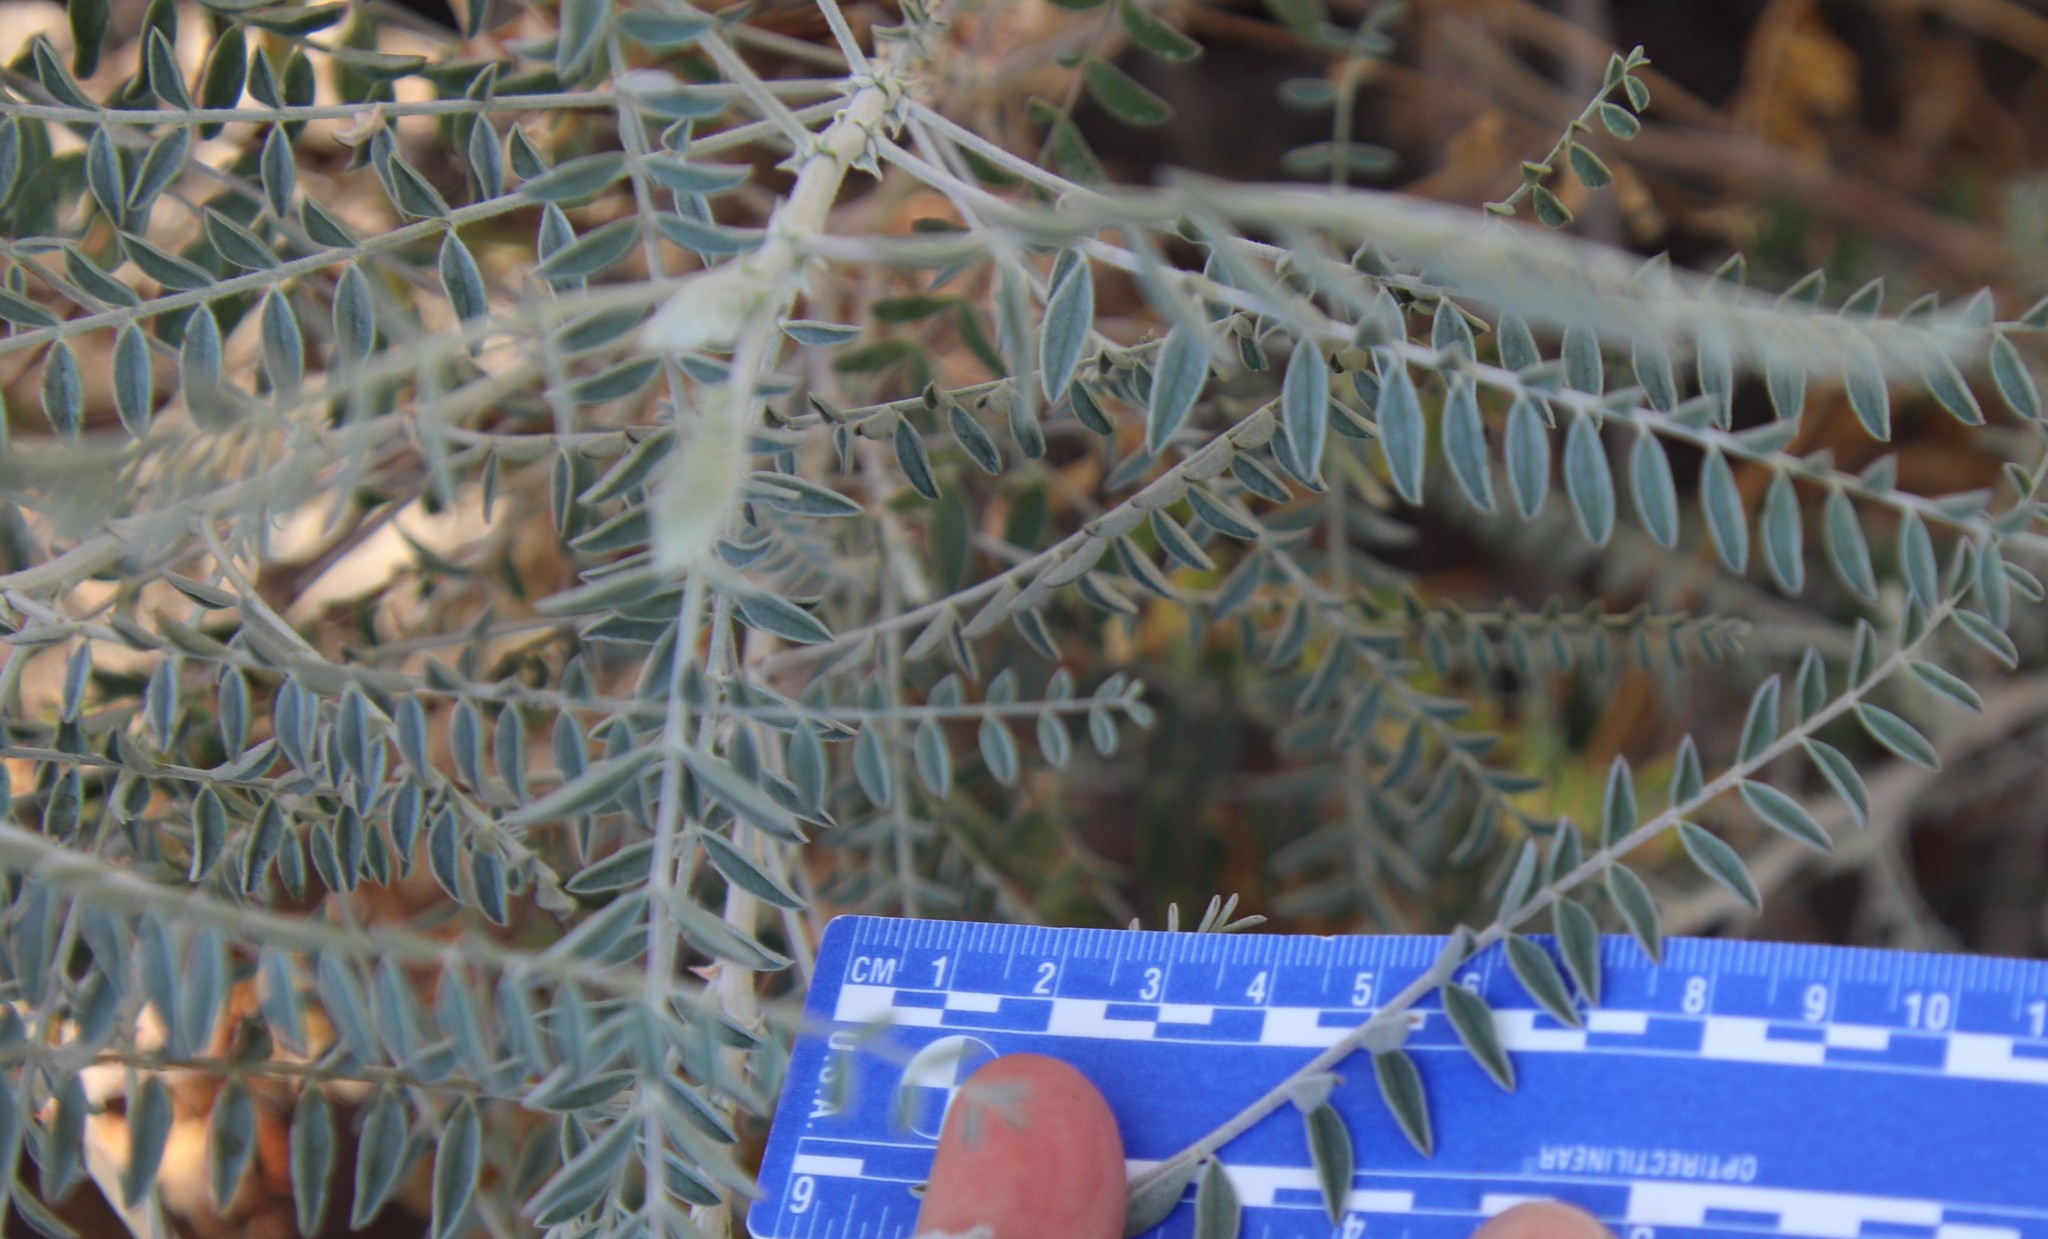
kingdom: Plantae
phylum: Tracheophyta
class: Magnoliopsida
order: Fabales
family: Fabaceae
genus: Astragalus
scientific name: Astragalus trichopodus
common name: Santa barbara milk-vetch
